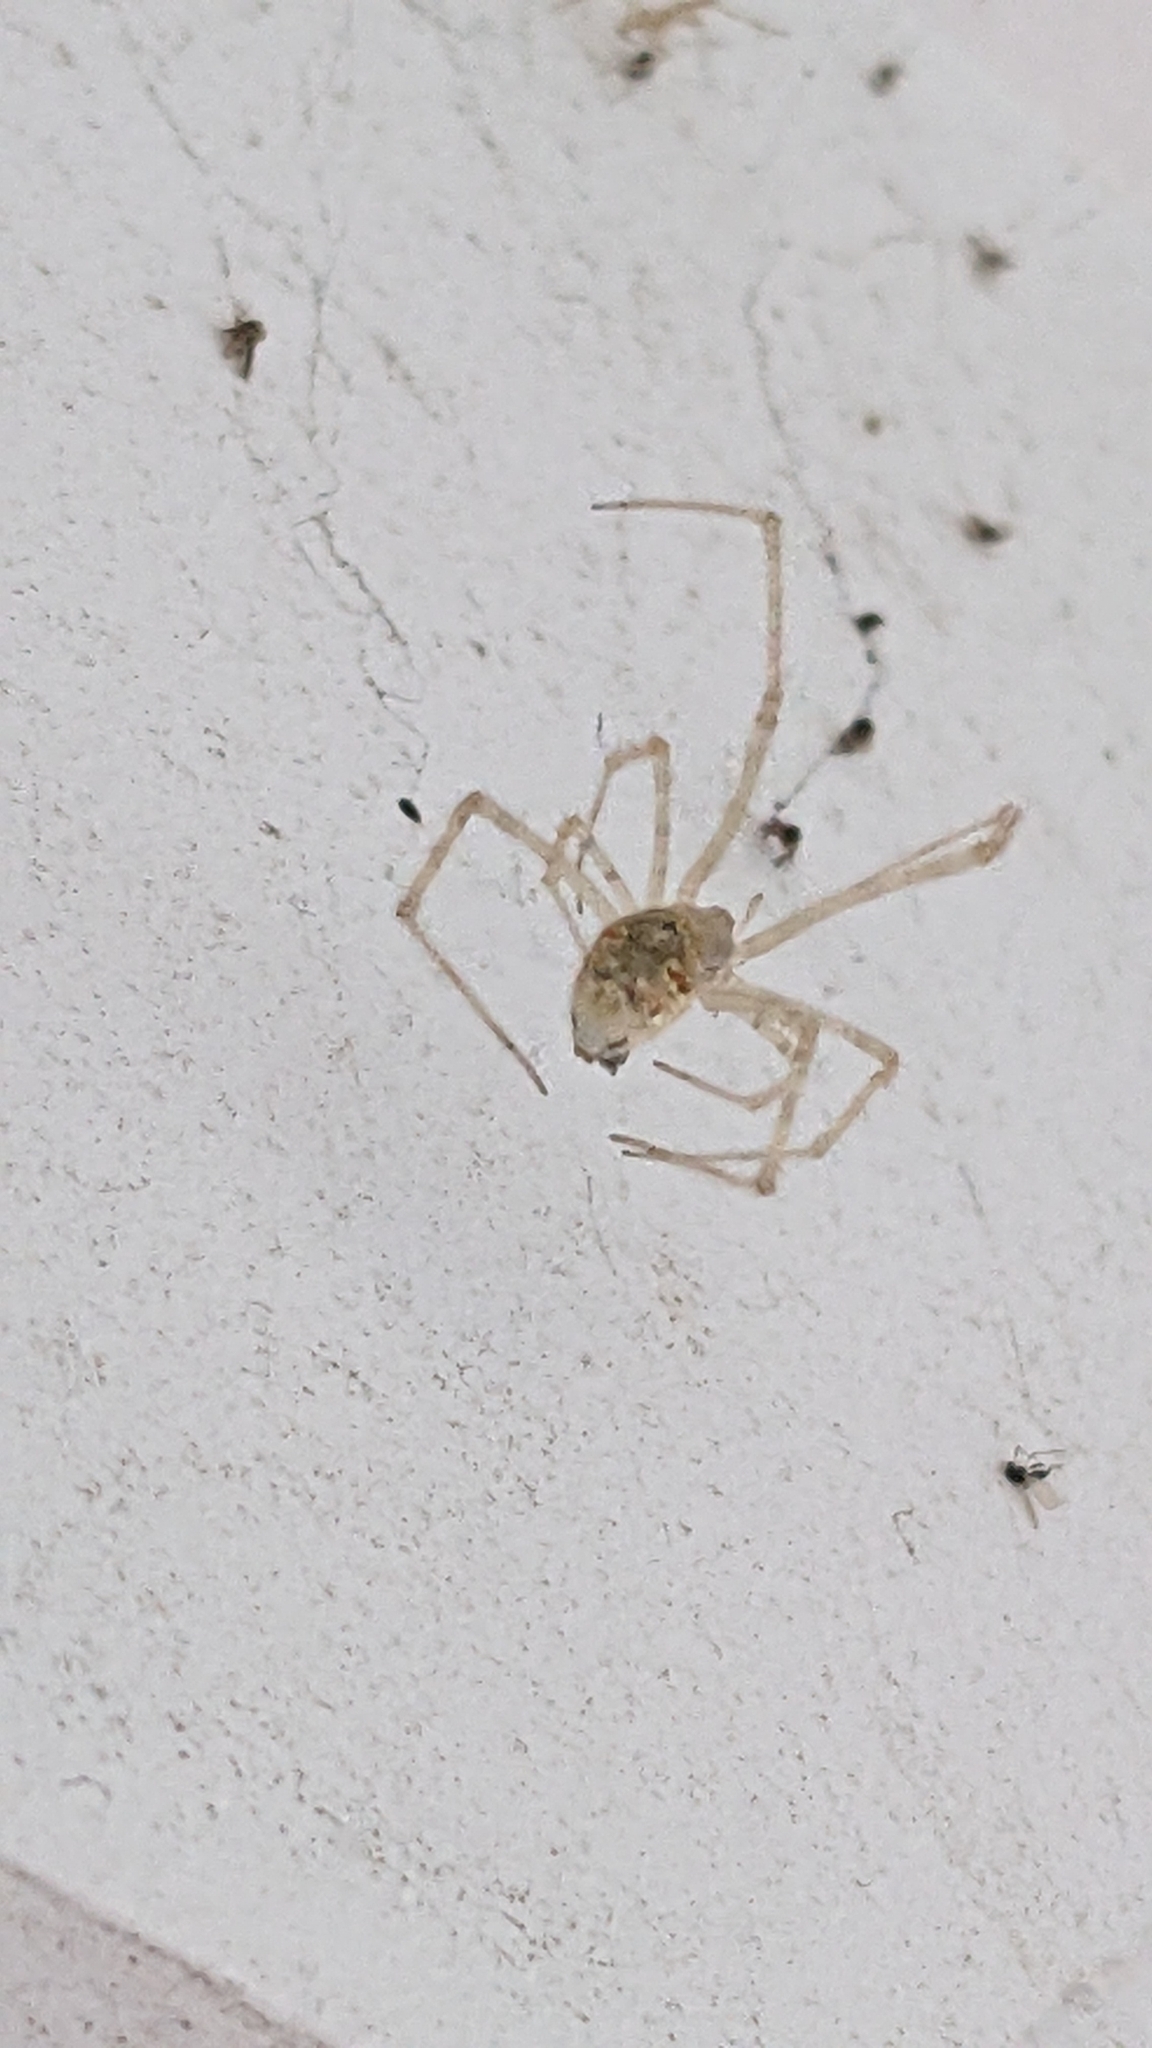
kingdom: Animalia
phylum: Arthropoda
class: Arachnida
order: Araneae
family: Theridiidae
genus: Cryptachaea
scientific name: Cryptachaea gigantipes
